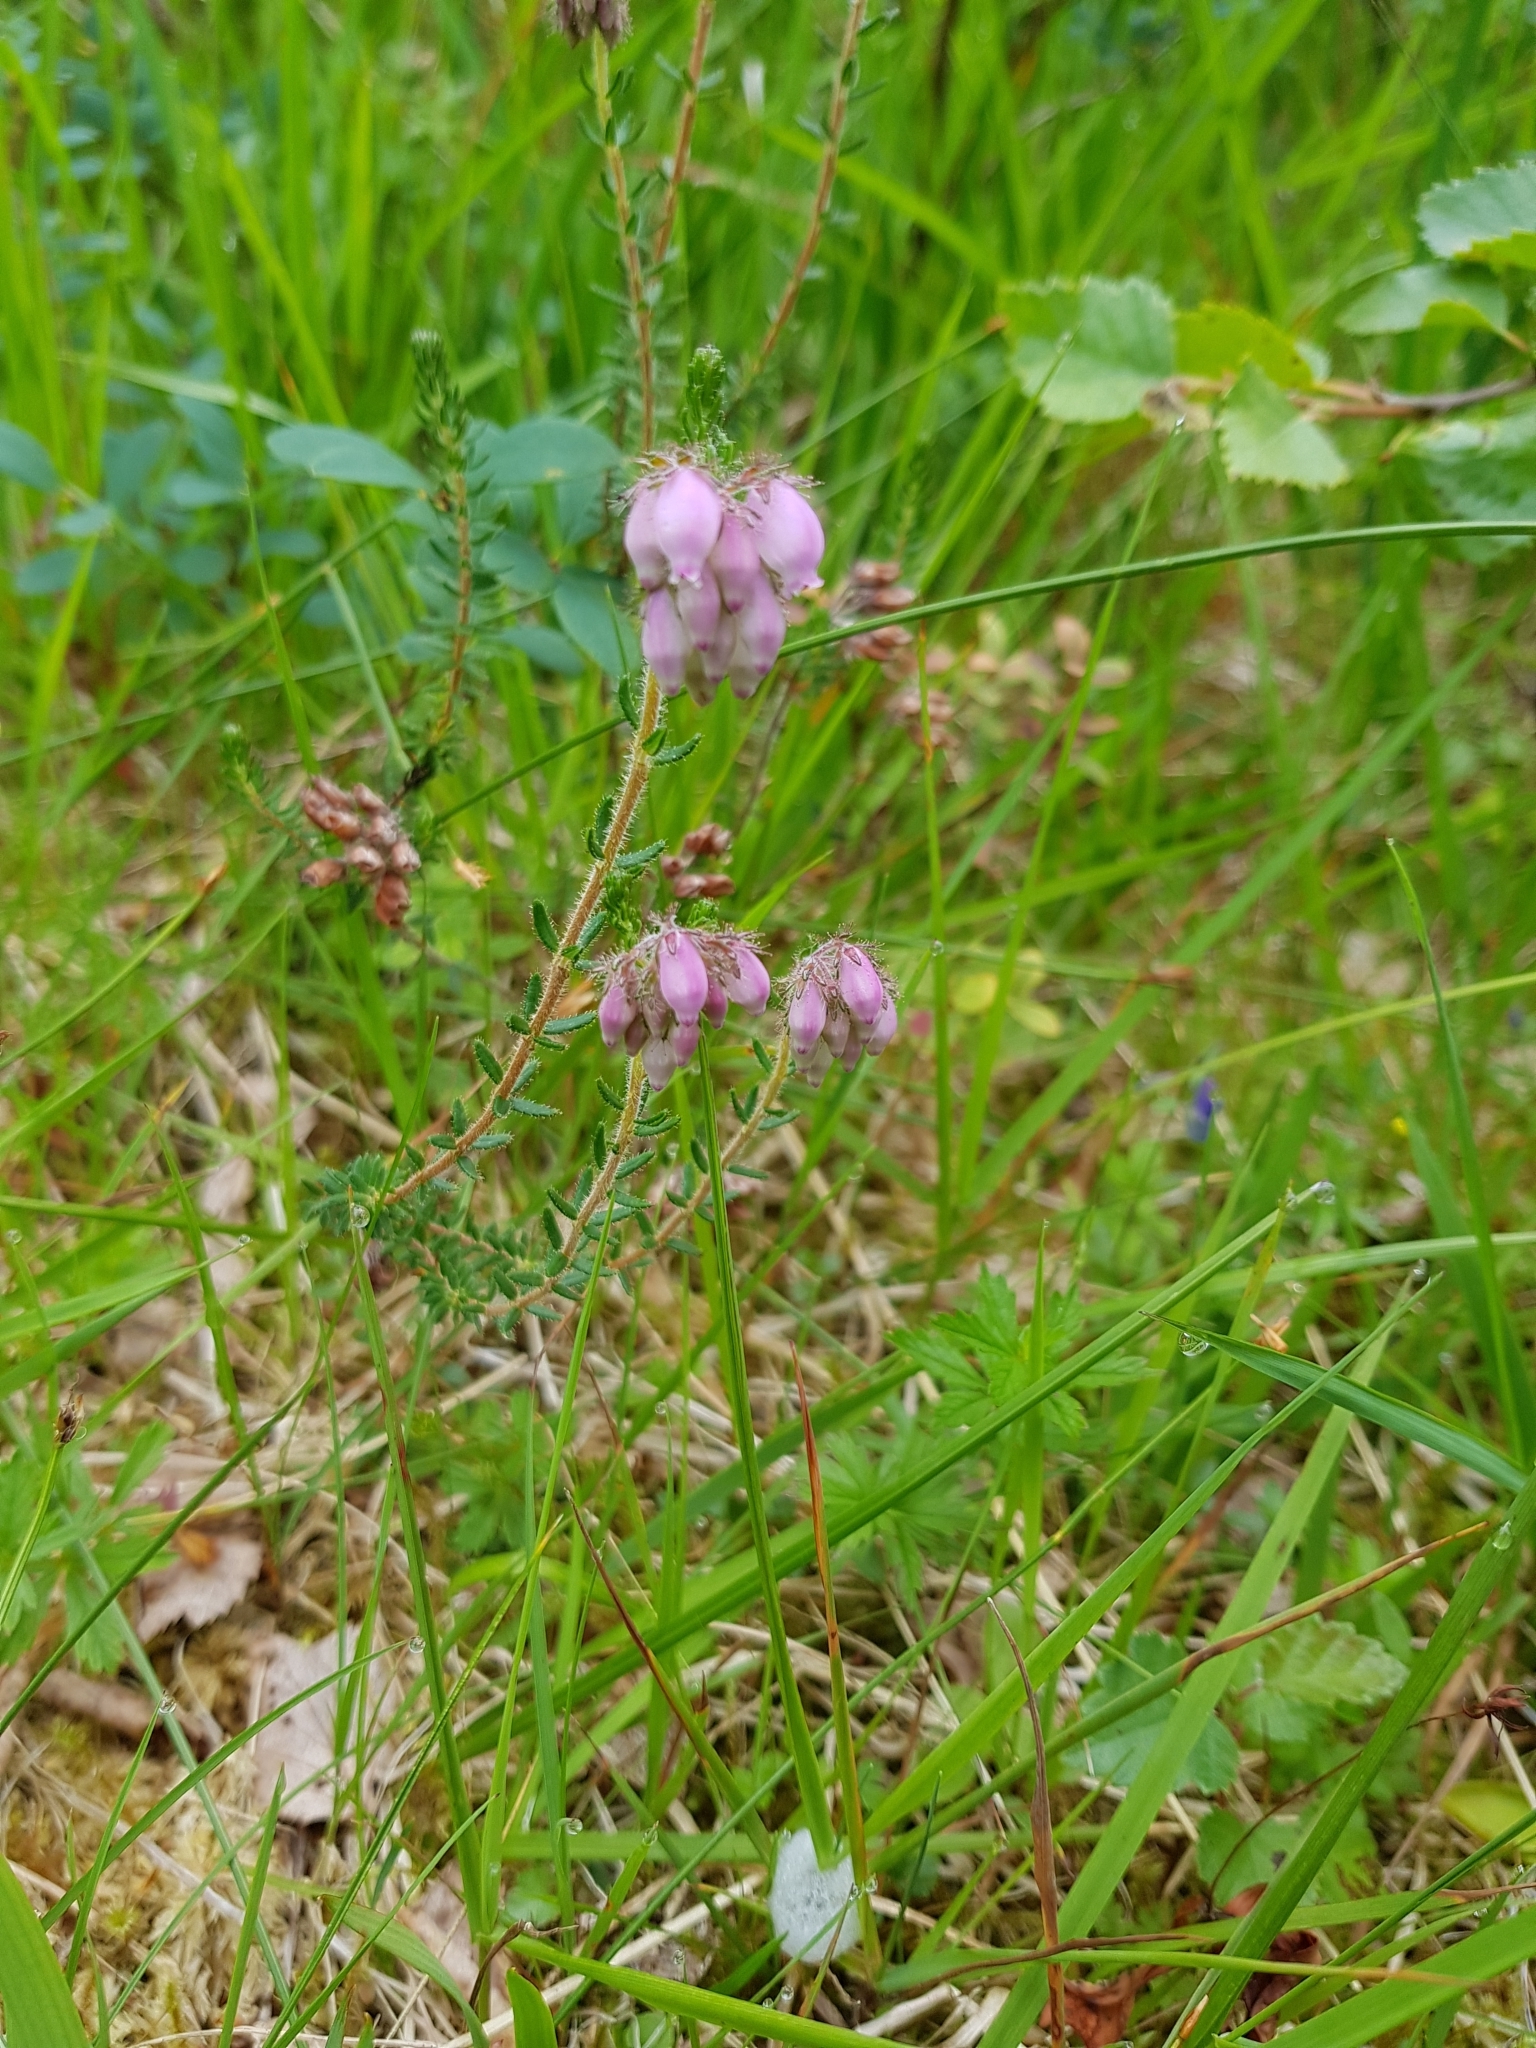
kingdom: Plantae
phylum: Tracheophyta
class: Magnoliopsida
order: Ericales
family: Ericaceae
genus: Erica
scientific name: Erica tetralix
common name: Cross-leaved heath
